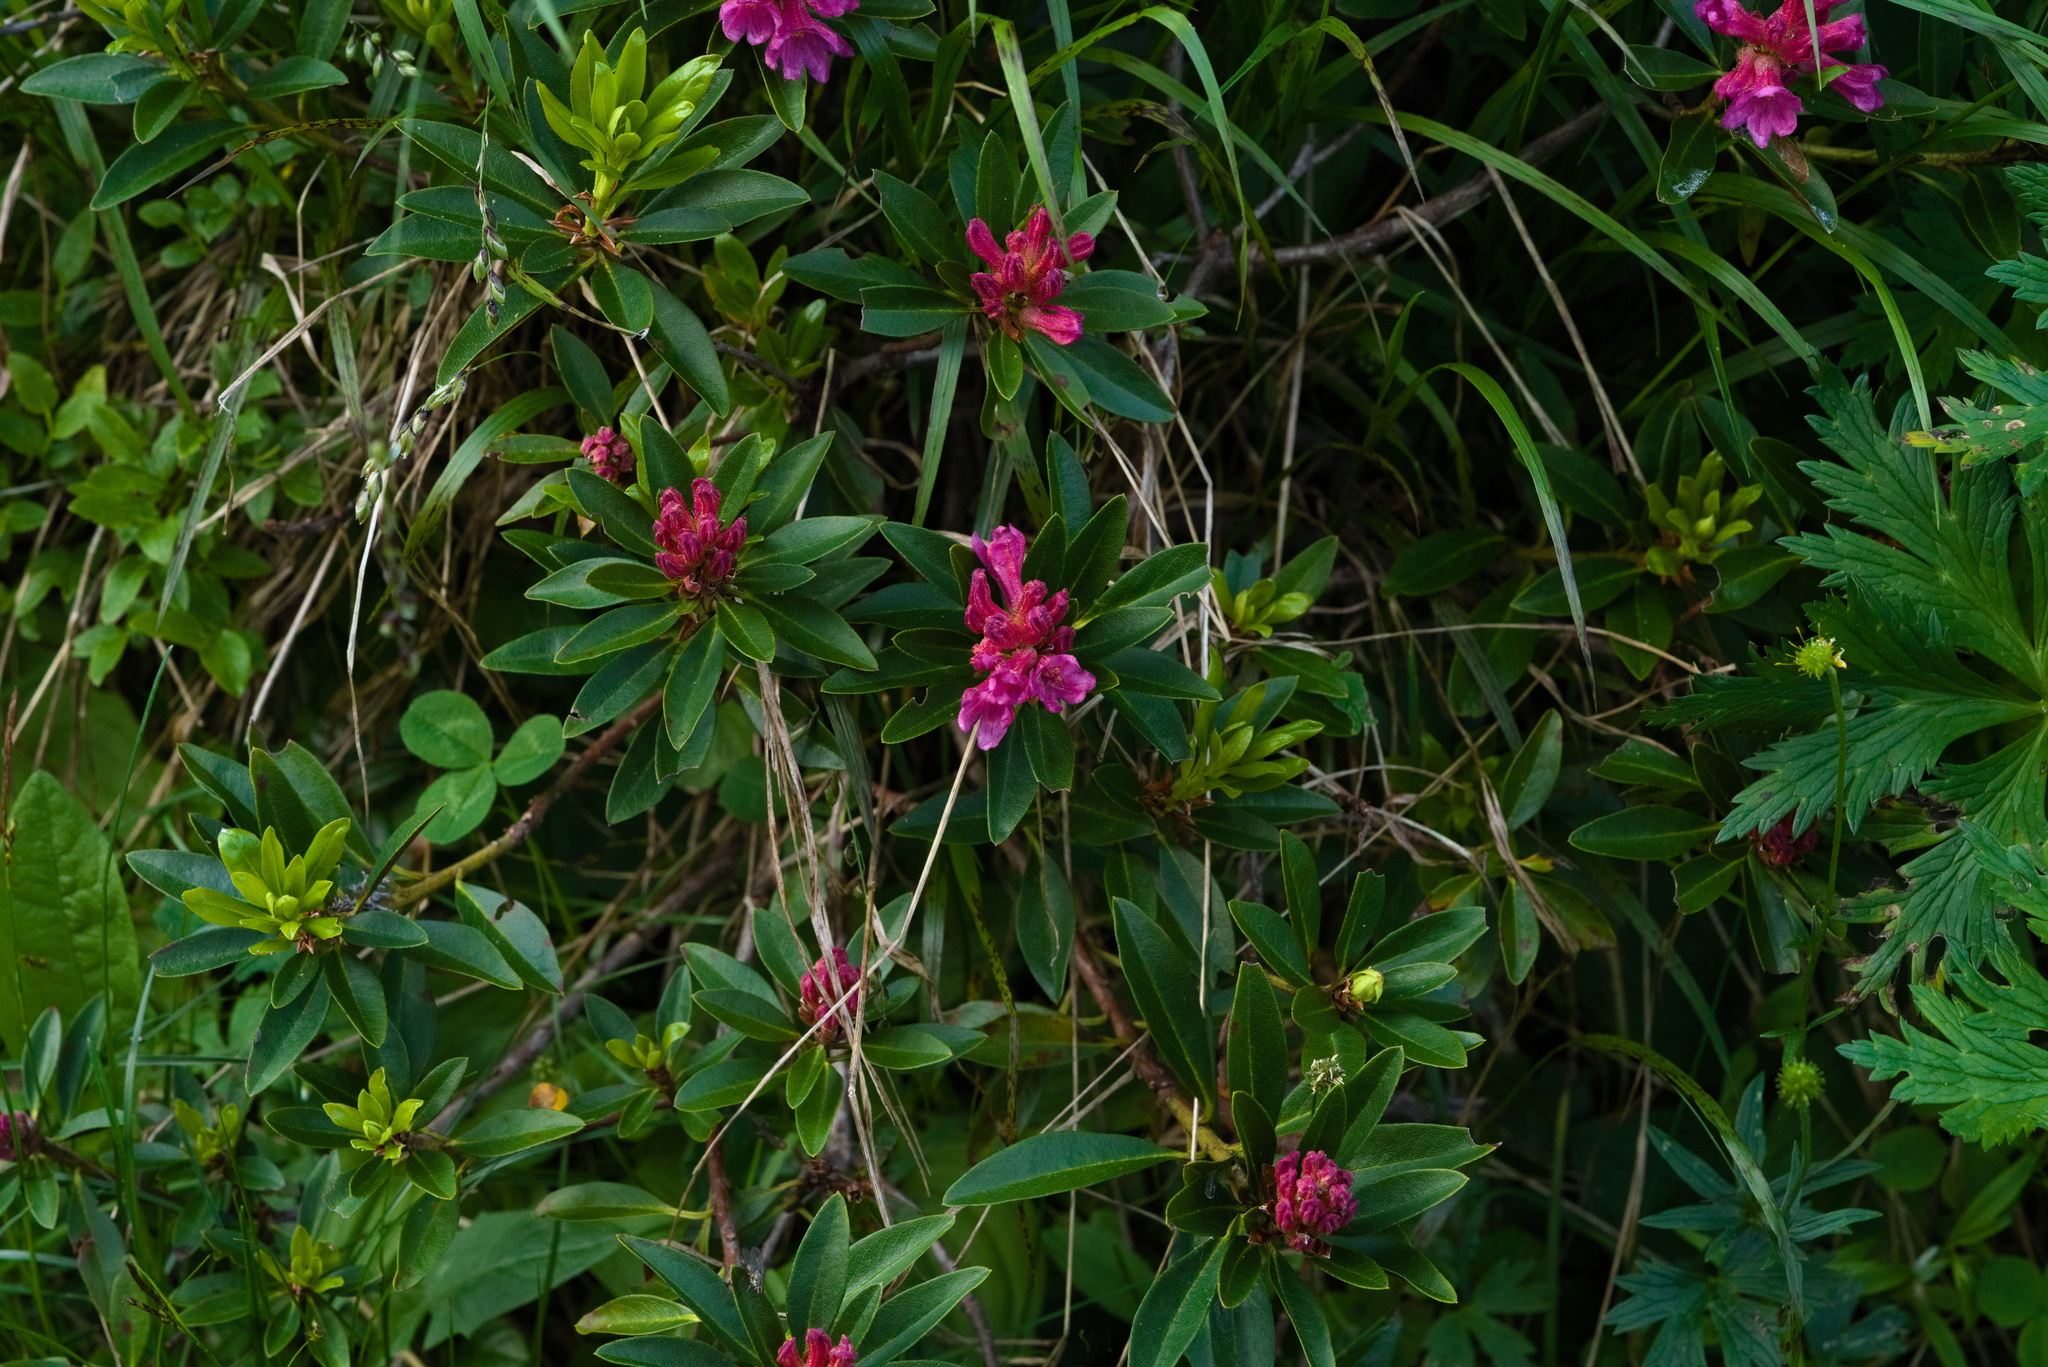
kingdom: Plantae
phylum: Tracheophyta
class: Magnoliopsida
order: Ericales
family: Ericaceae
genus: Rhododendron
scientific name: Rhododendron ferrugineum
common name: Alpenrose
